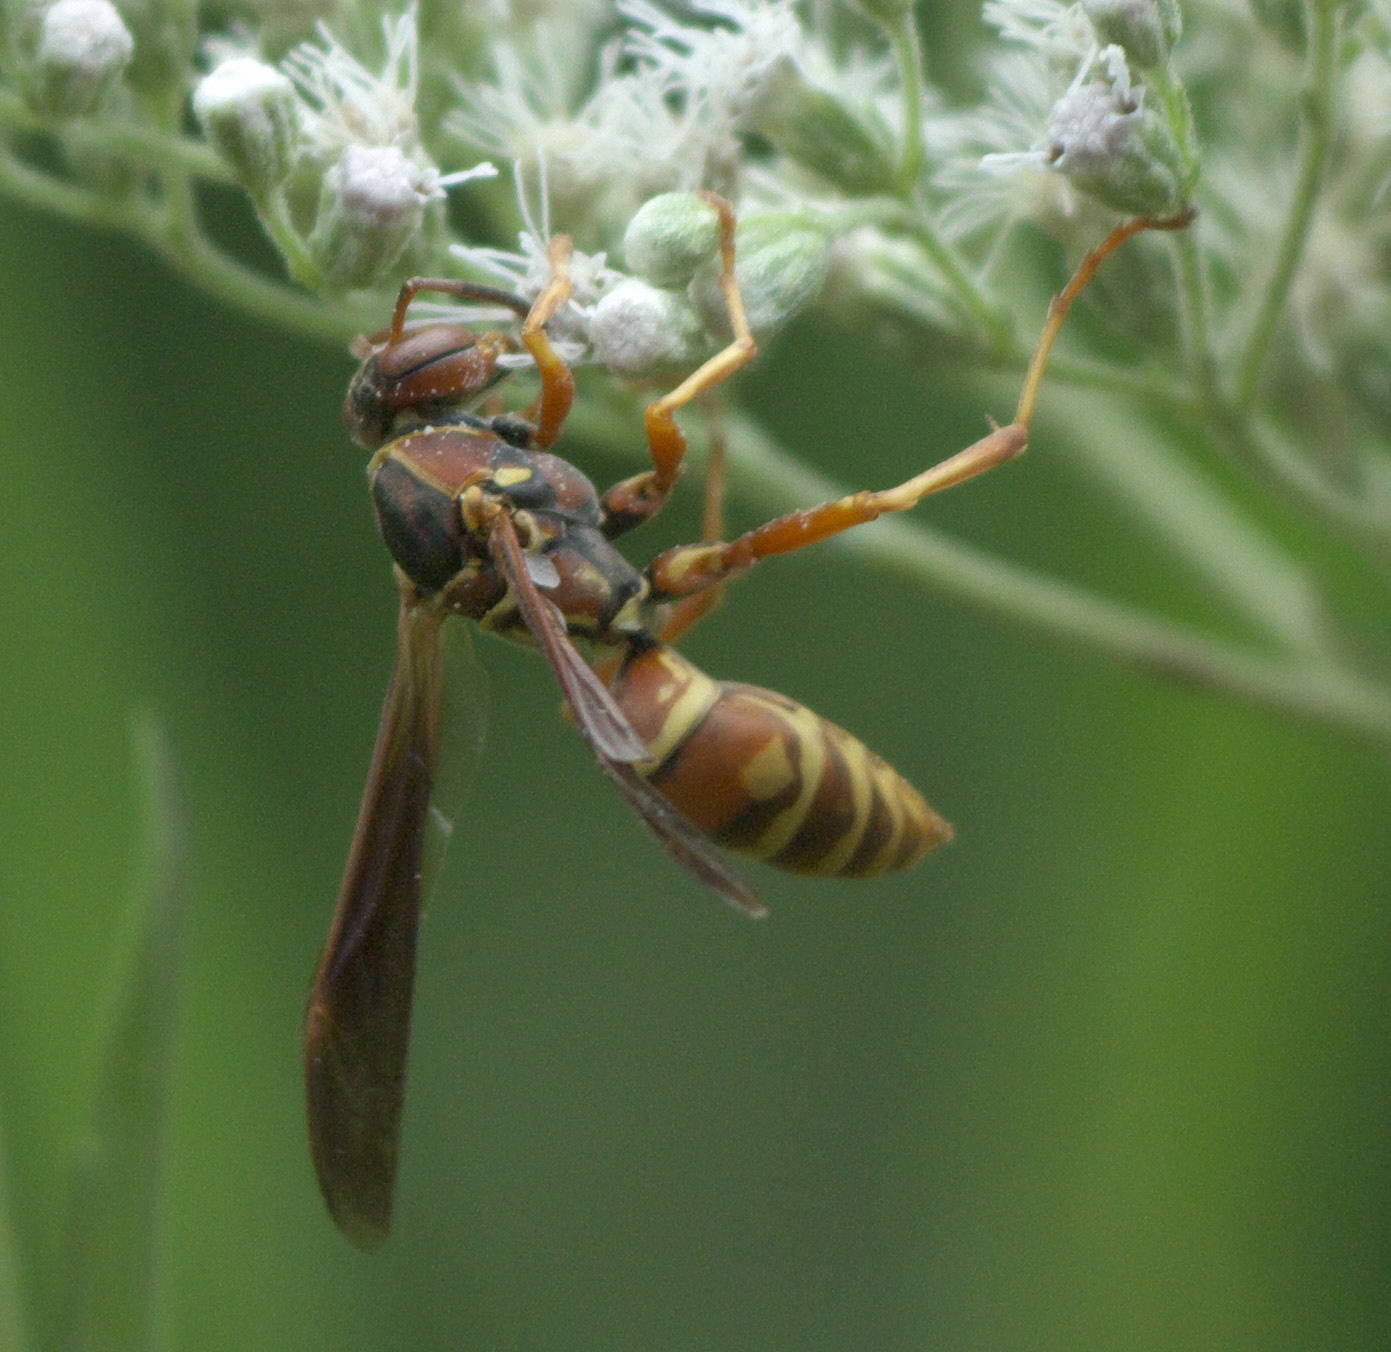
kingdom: Animalia
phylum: Arthropoda
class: Insecta
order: Hymenoptera
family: Eumenidae
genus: Polistes
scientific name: Polistes fuscatus
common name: Dark paper wasp
